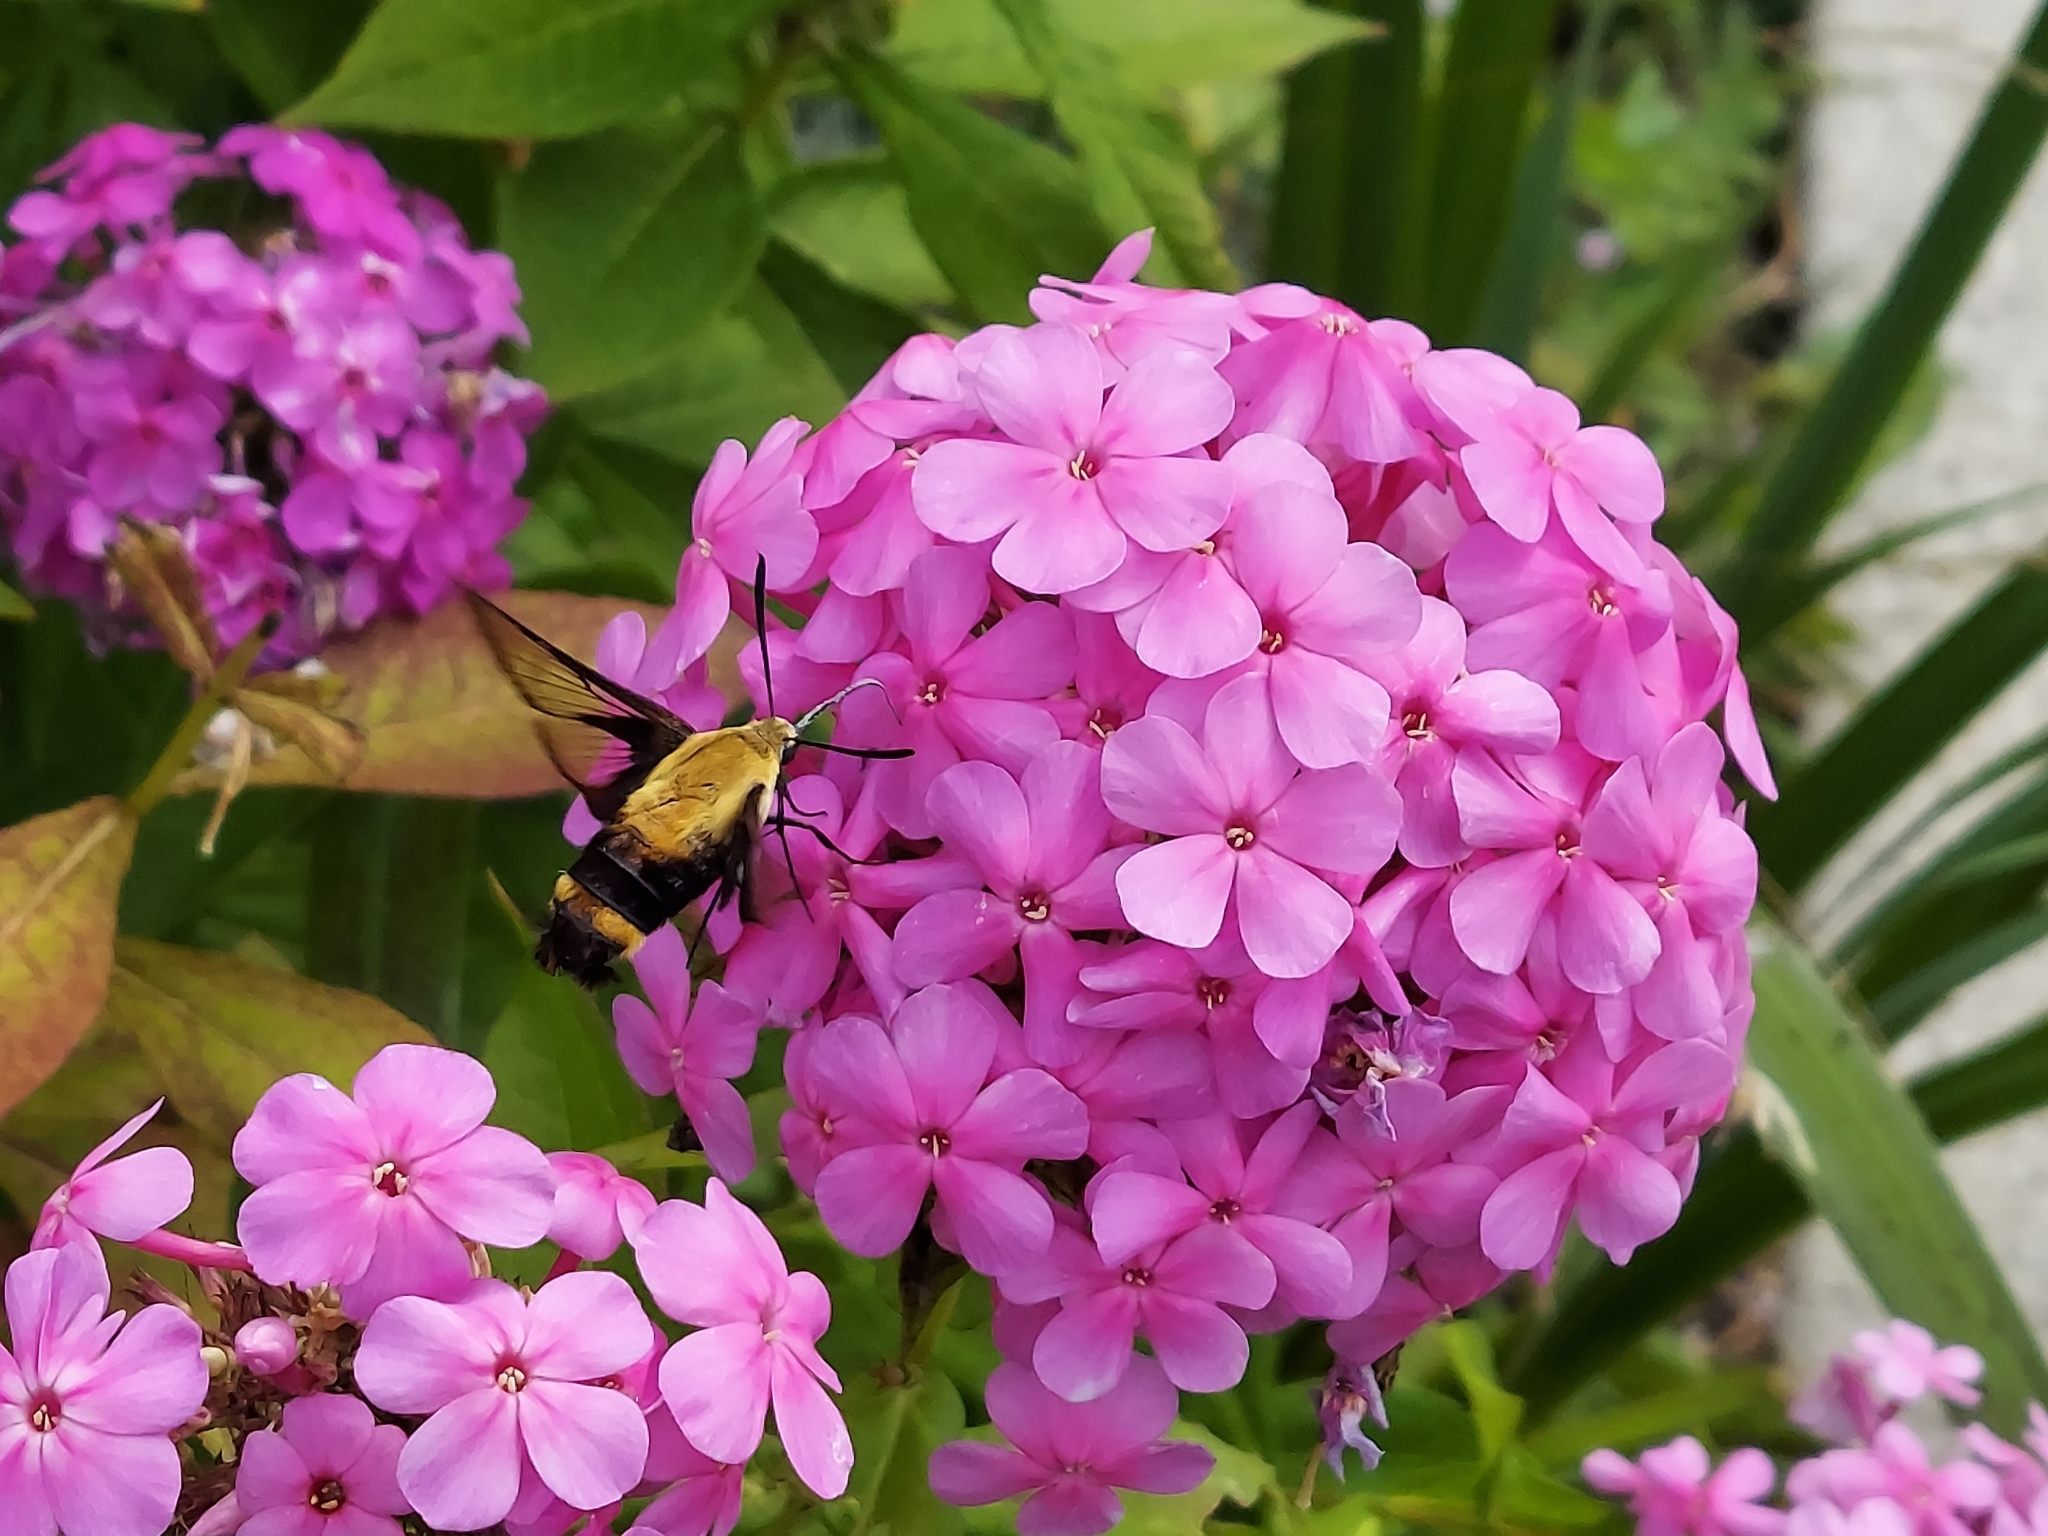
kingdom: Animalia
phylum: Arthropoda
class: Insecta
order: Lepidoptera
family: Sphingidae
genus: Hemaris
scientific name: Hemaris diffinis
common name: Bumblebee moth
